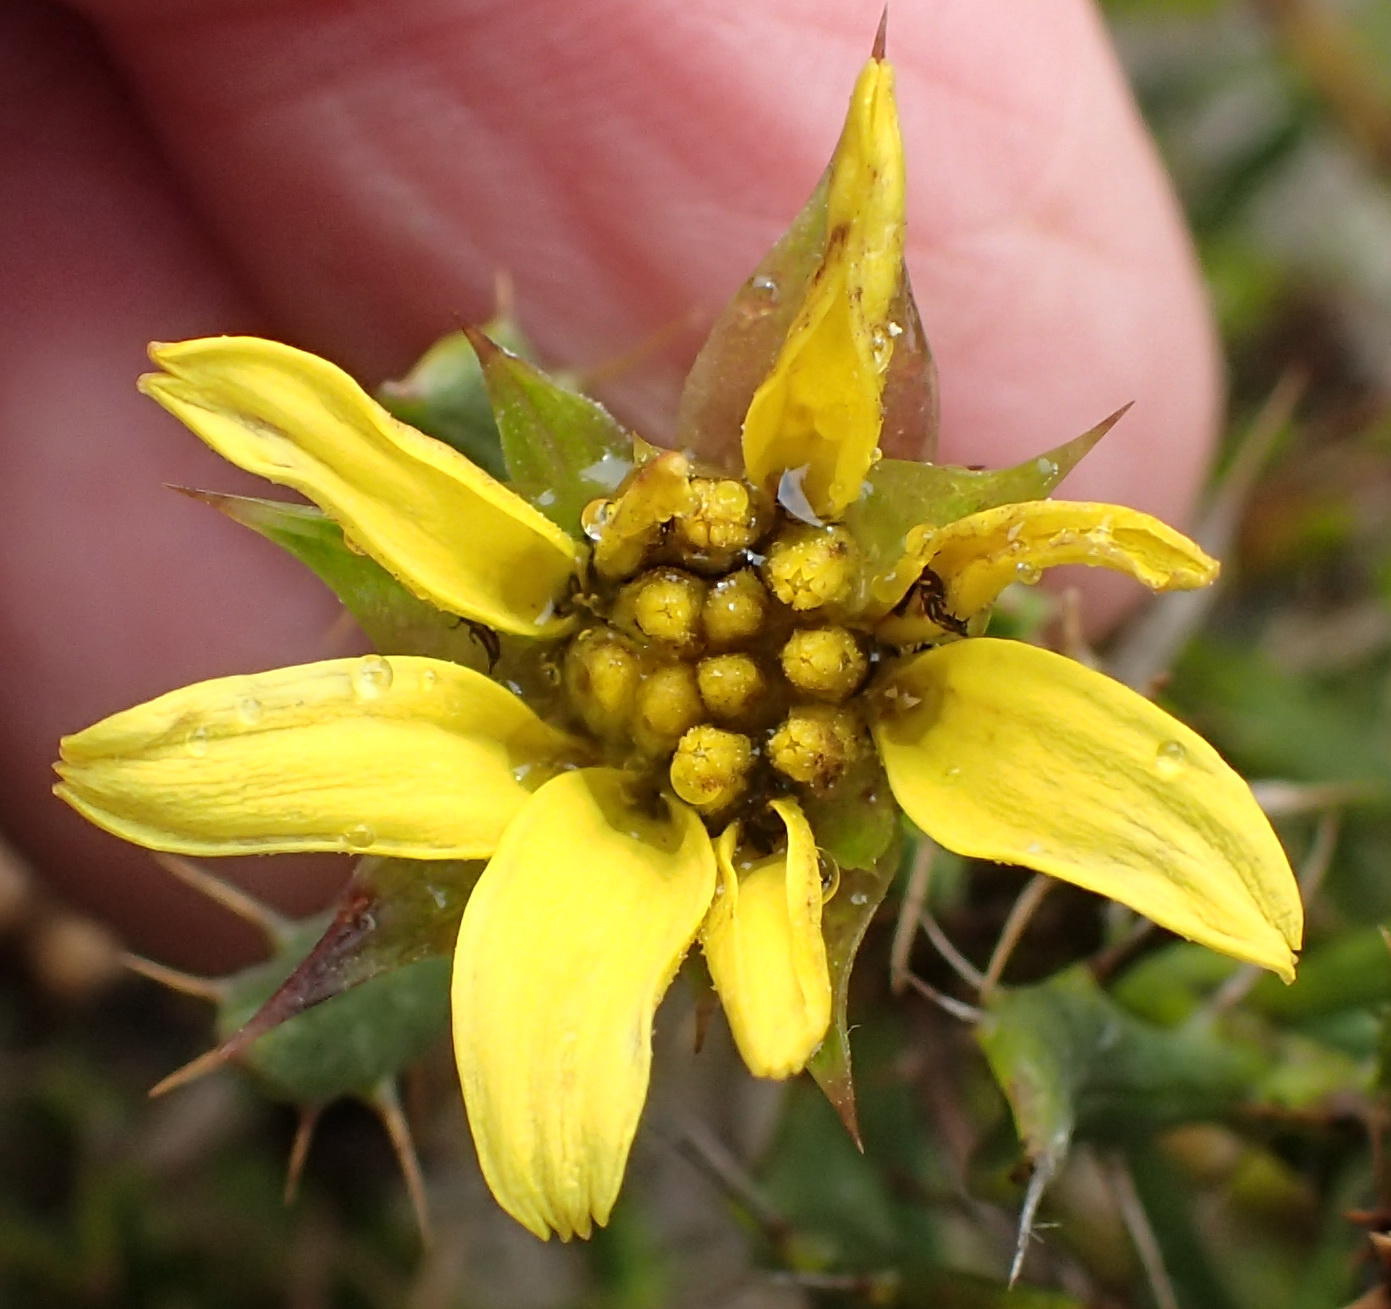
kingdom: Plantae
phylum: Tracheophyta
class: Magnoliopsida
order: Asterales
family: Asteraceae
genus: Cullumia
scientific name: Cullumia aculeata
